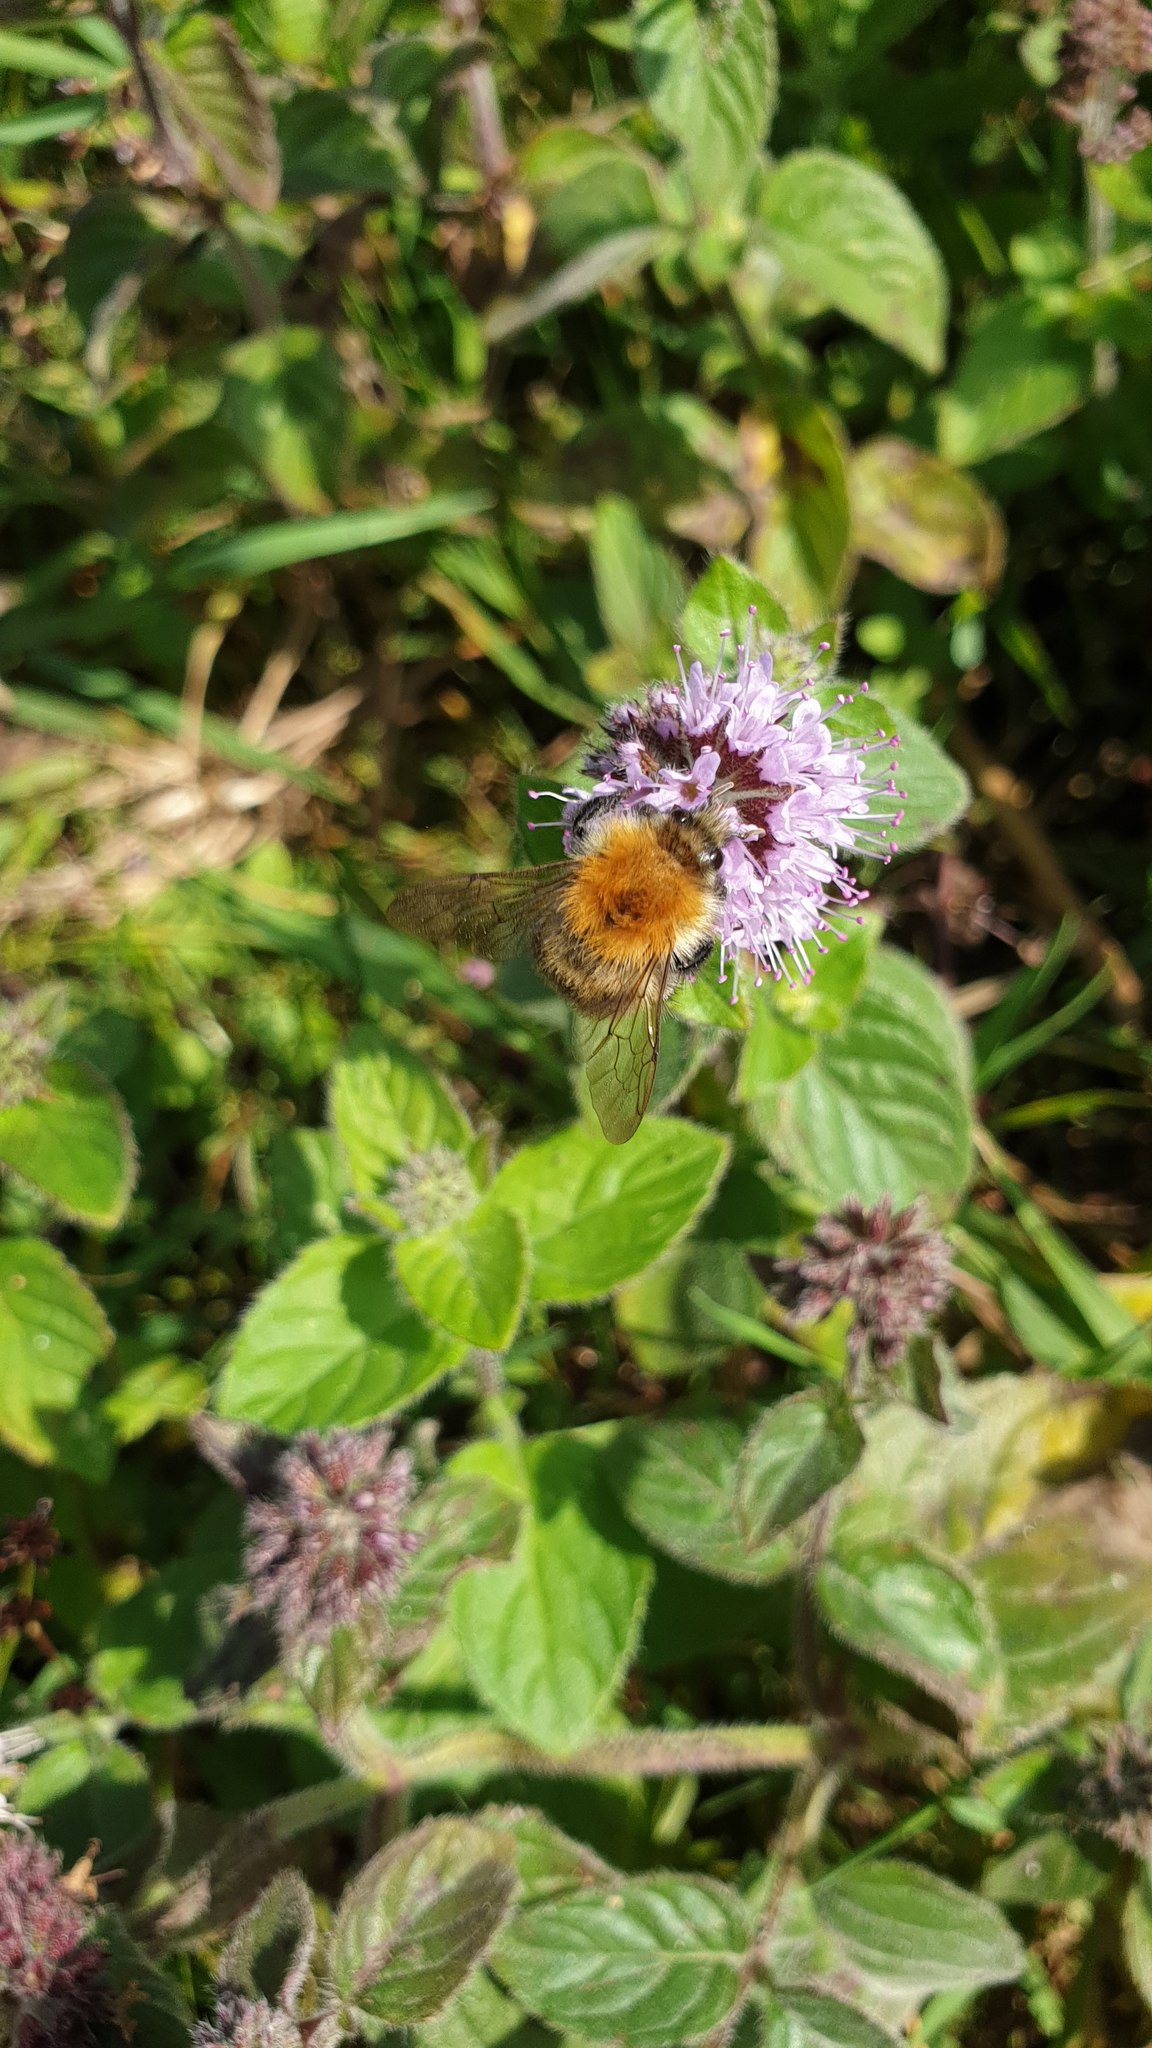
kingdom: Animalia
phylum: Arthropoda
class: Insecta
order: Hymenoptera
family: Apidae
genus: Bombus
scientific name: Bombus pascuorum
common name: Common carder bee
